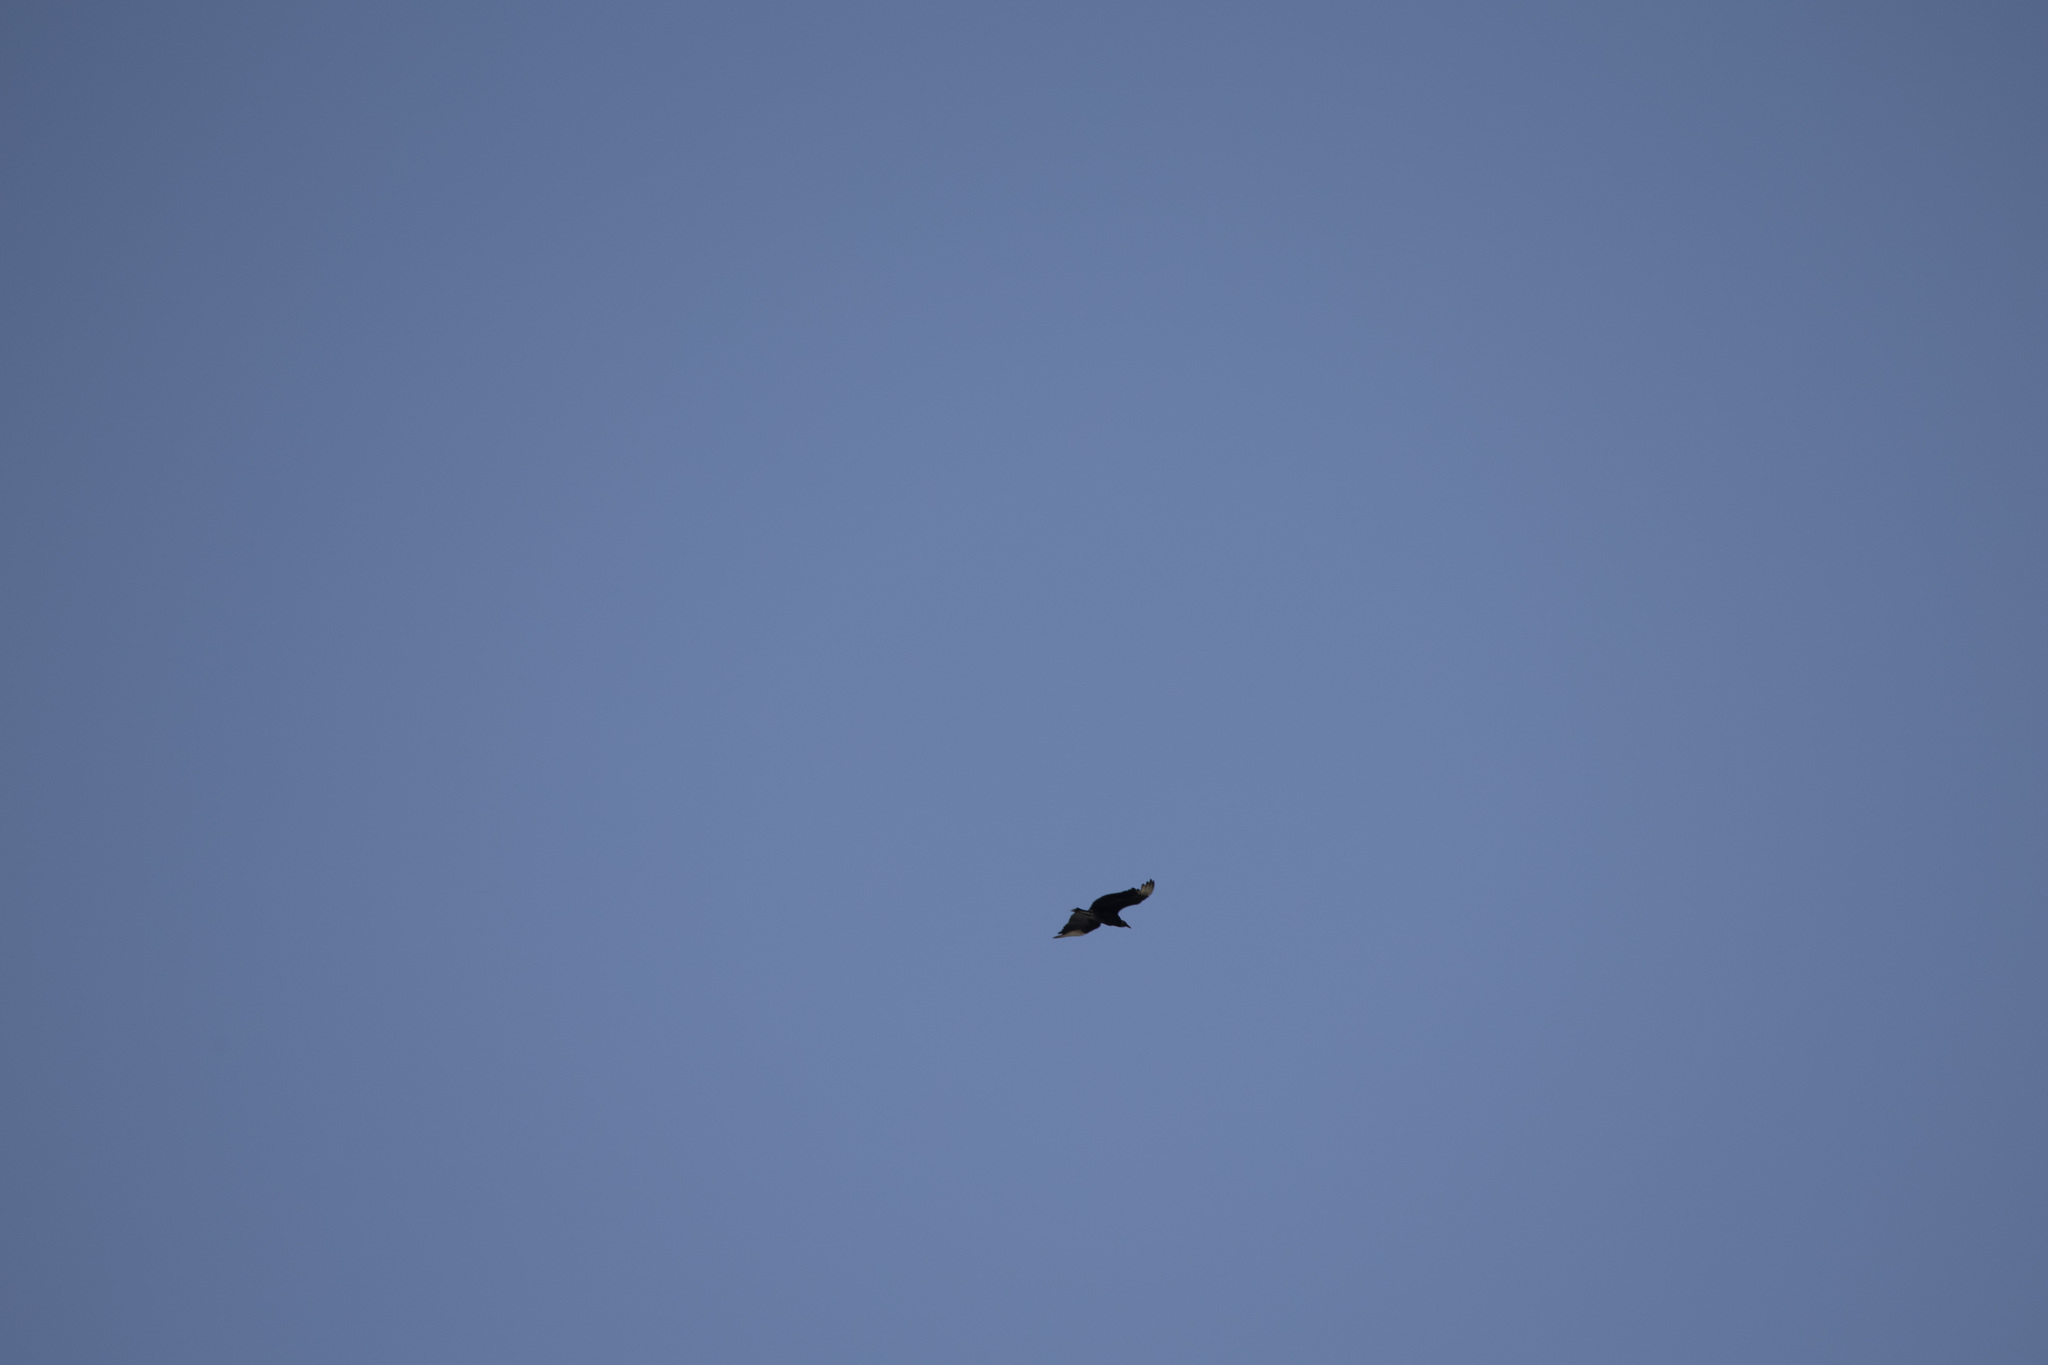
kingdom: Animalia
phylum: Chordata
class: Aves
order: Accipitriformes
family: Cathartidae
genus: Coragyps
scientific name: Coragyps atratus
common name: Black vulture
